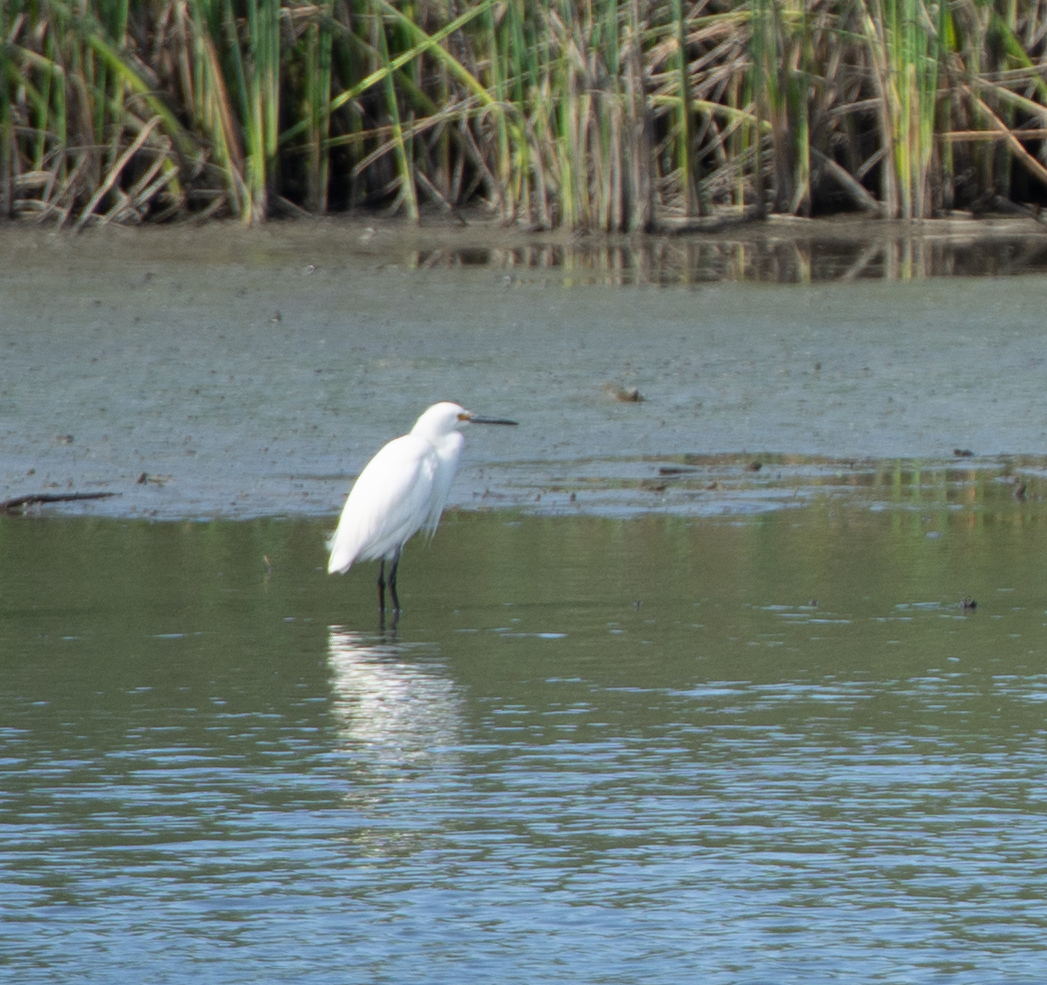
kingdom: Animalia
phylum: Chordata
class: Aves
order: Pelecaniformes
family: Ardeidae
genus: Egretta
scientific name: Egretta thula
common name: Snowy egret
